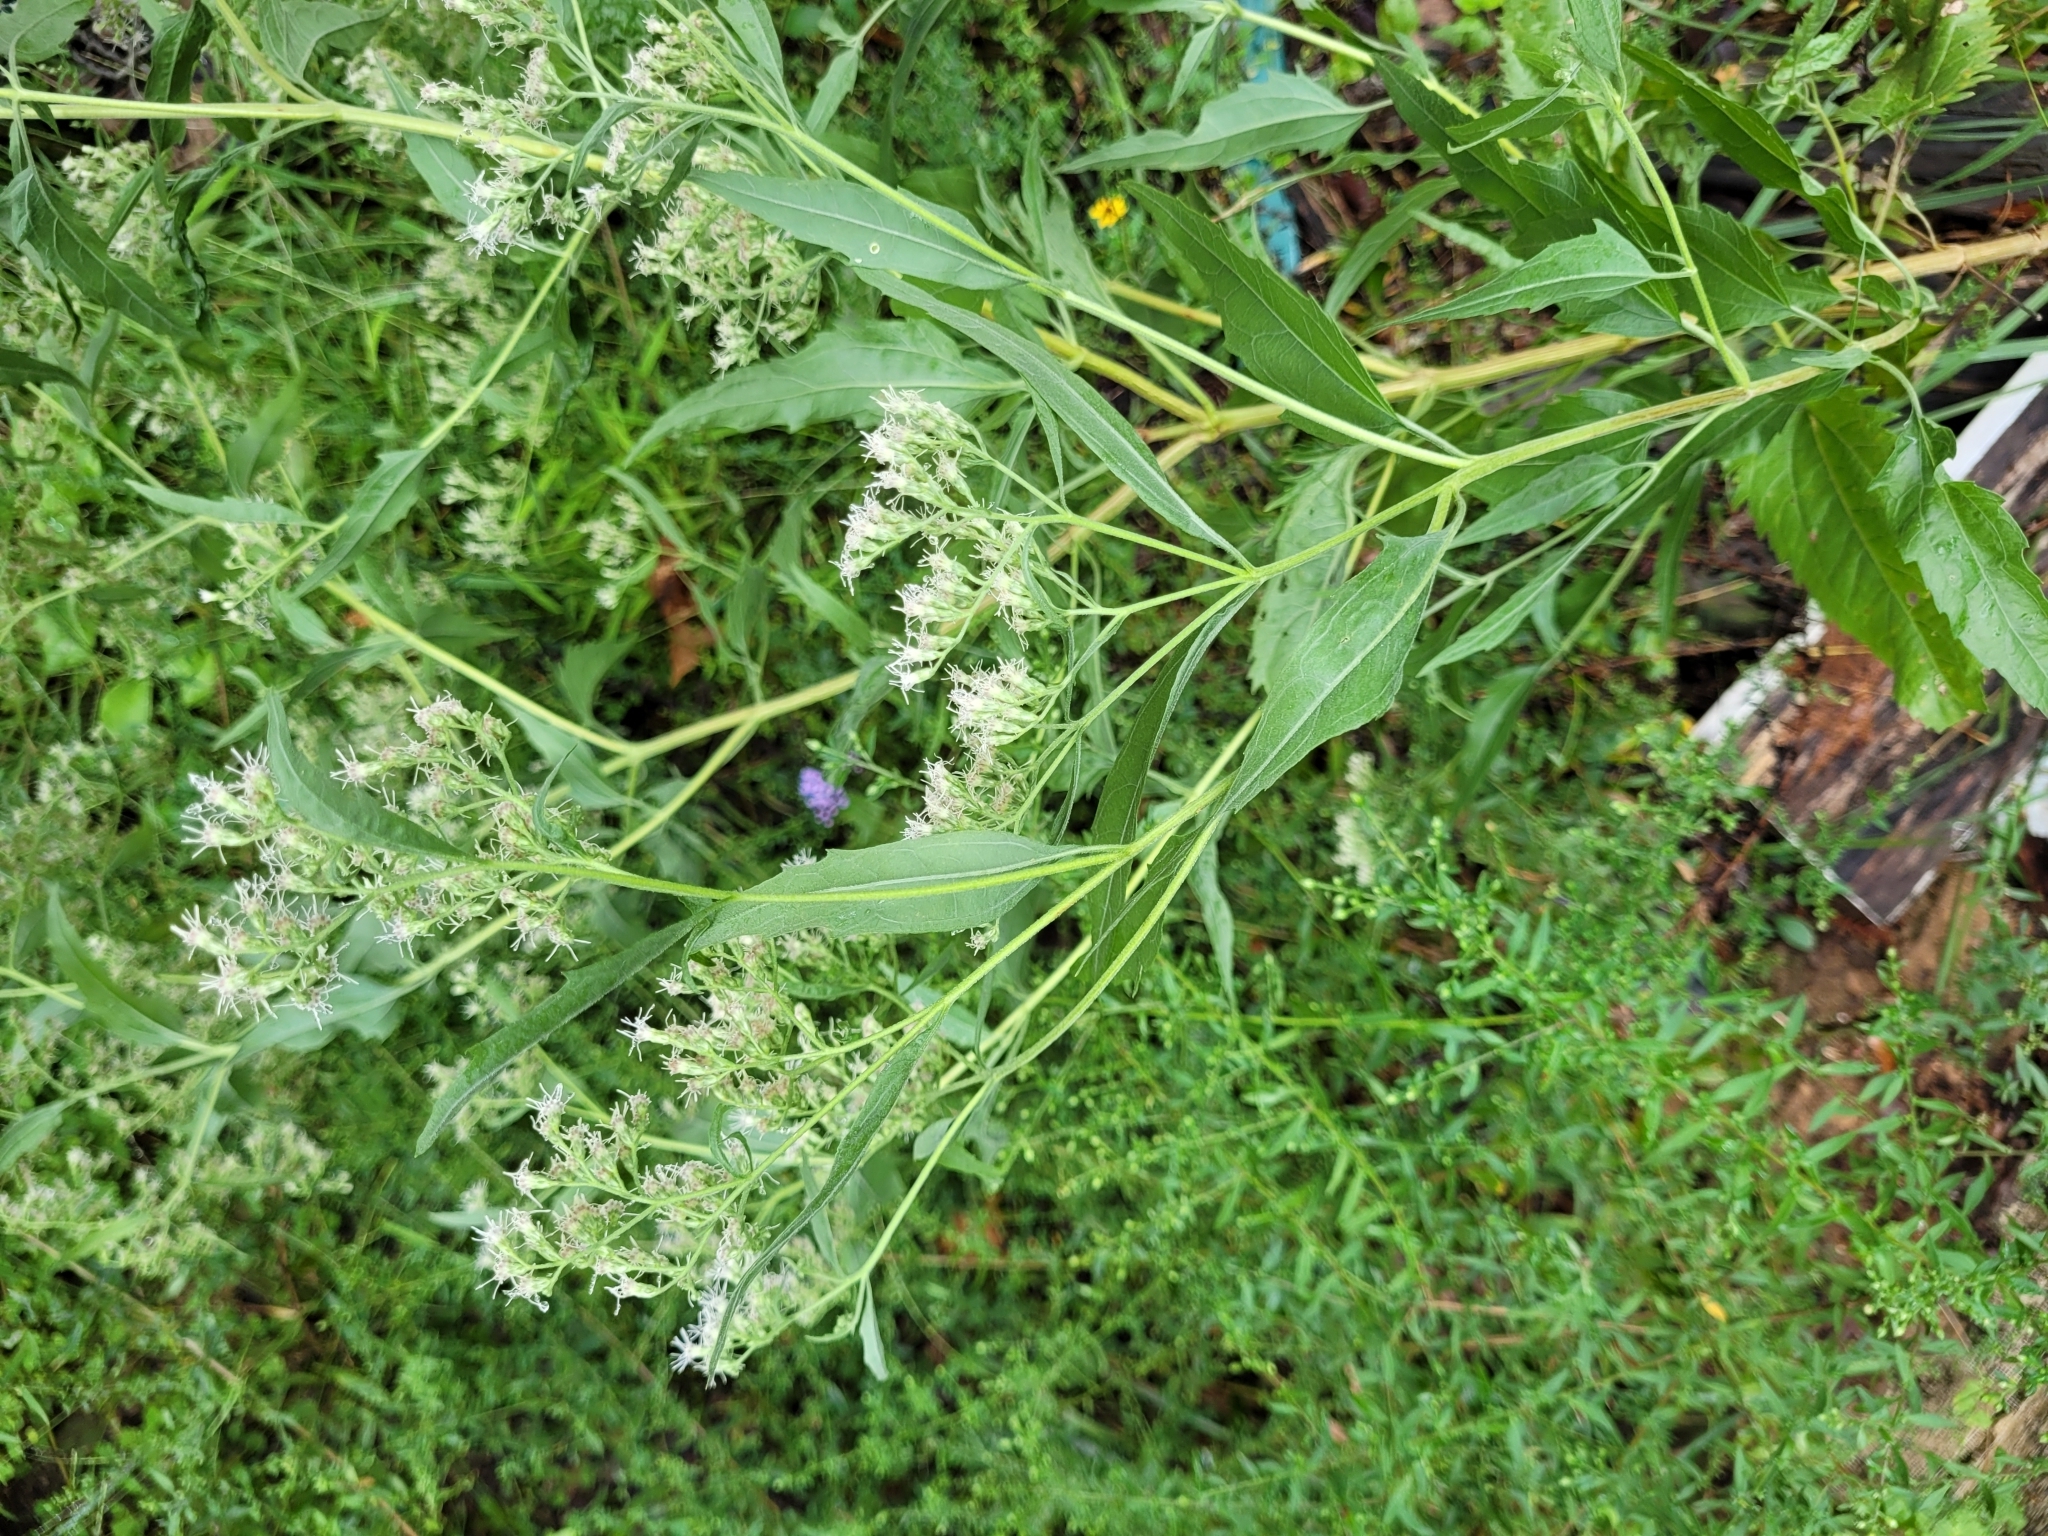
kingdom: Plantae
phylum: Tracheophyta
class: Magnoliopsida
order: Asterales
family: Asteraceae
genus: Eupatorium
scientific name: Eupatorium serotinum
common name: Late boneset
